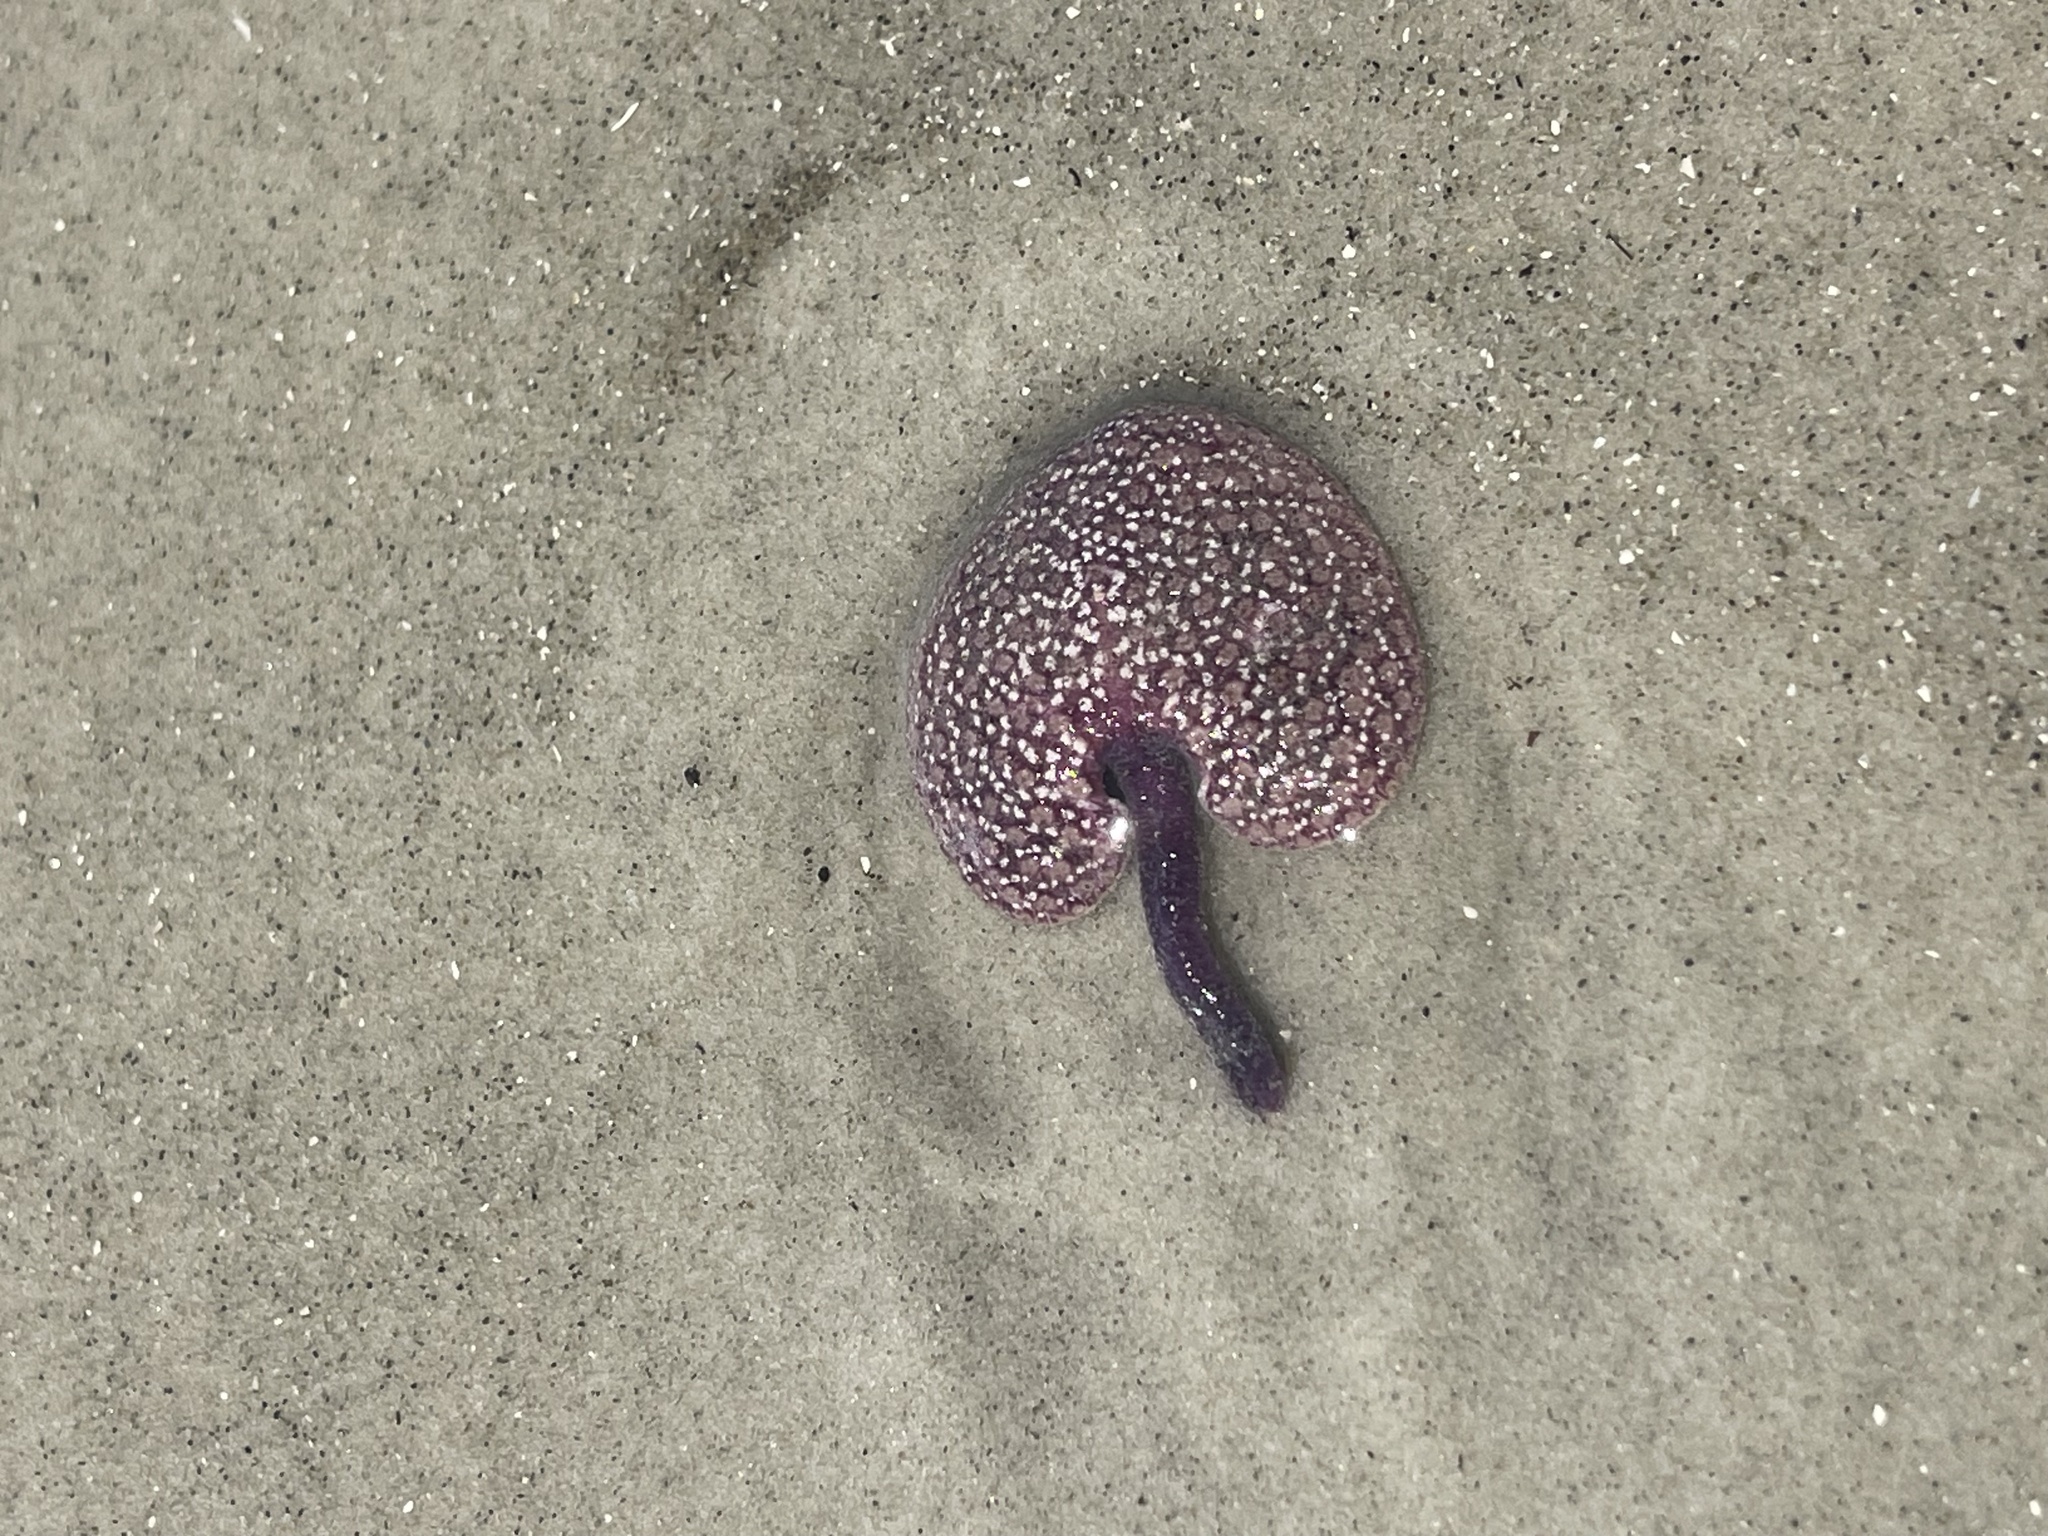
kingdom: Animalia
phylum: Cnidaria
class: Anthozoa
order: Scleralcyonacea
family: Renillidae
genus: Renilla
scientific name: Renilla reniformis
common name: Sea pansy
